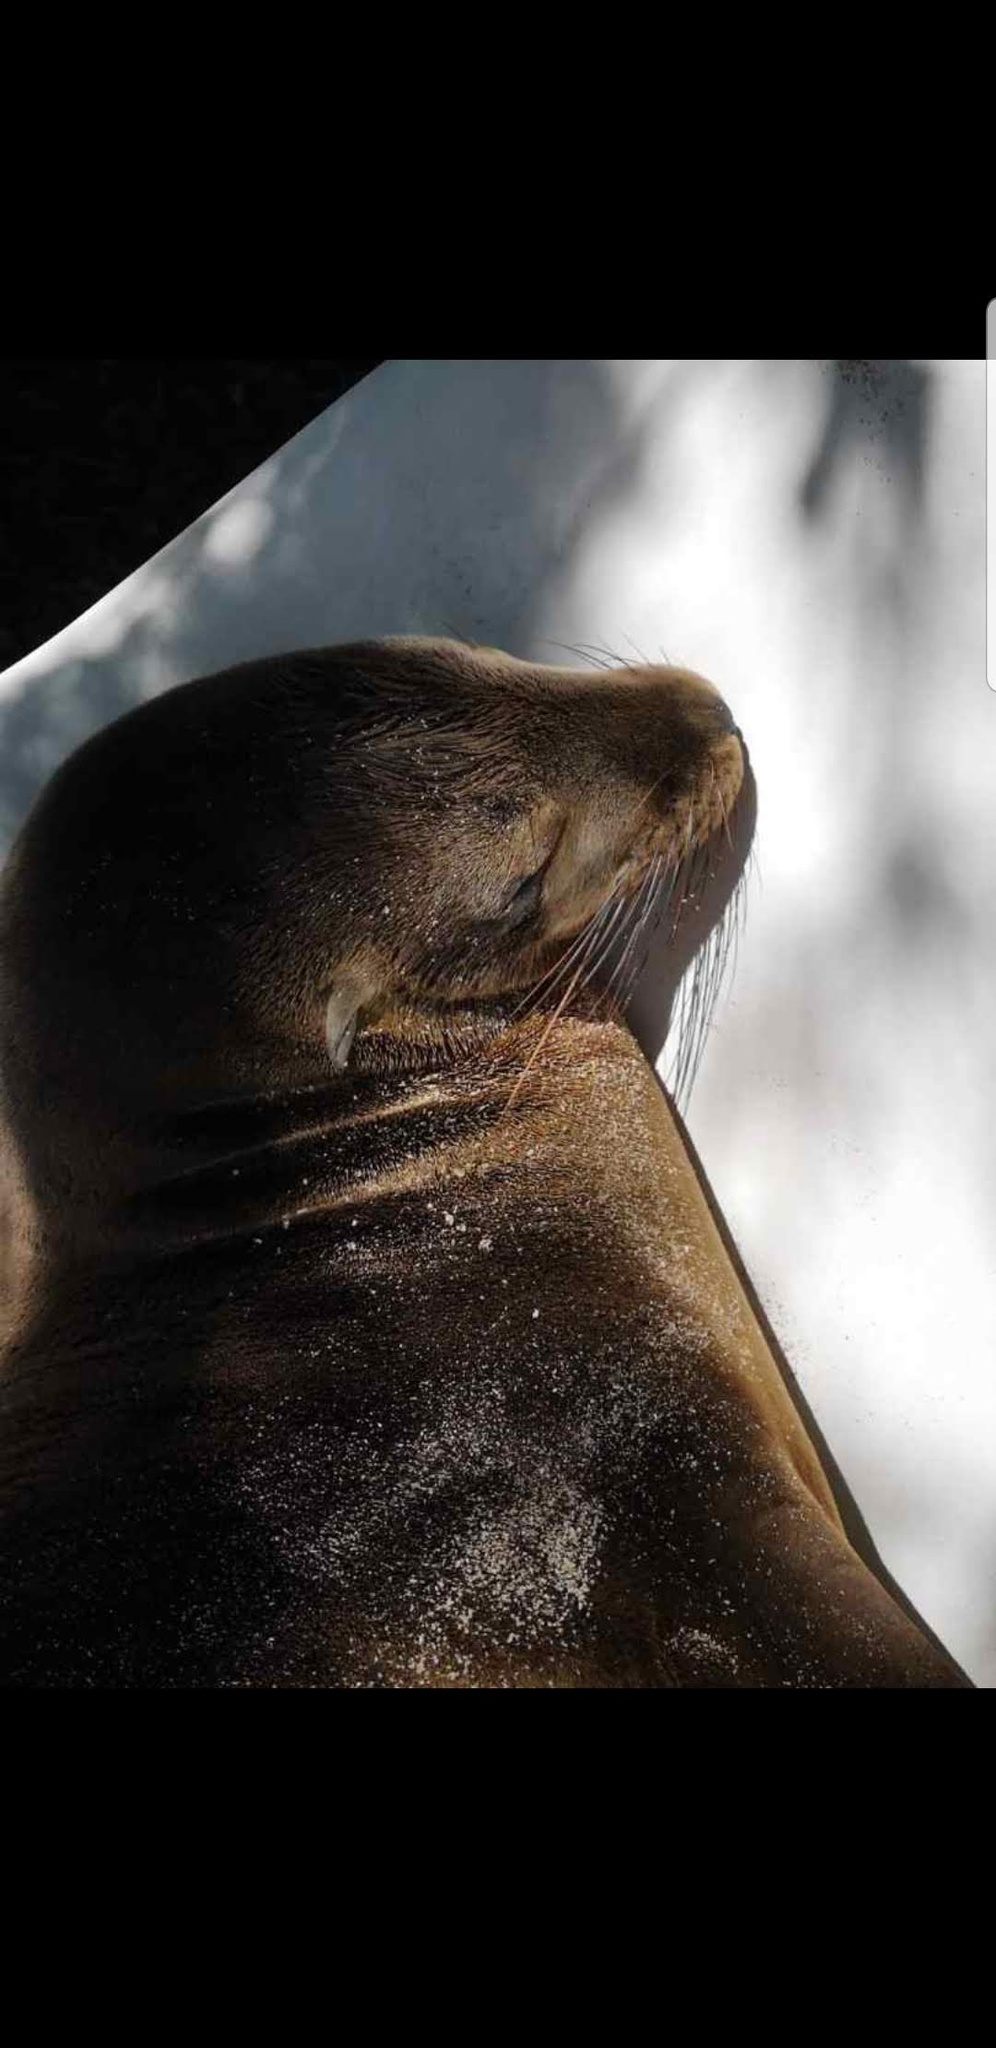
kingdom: Animalia
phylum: Chordata
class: Mammalia
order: Carnivora
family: Otariidae
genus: Zalophus
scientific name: Zalophus wollebaeki
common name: Galapagos sea lion
